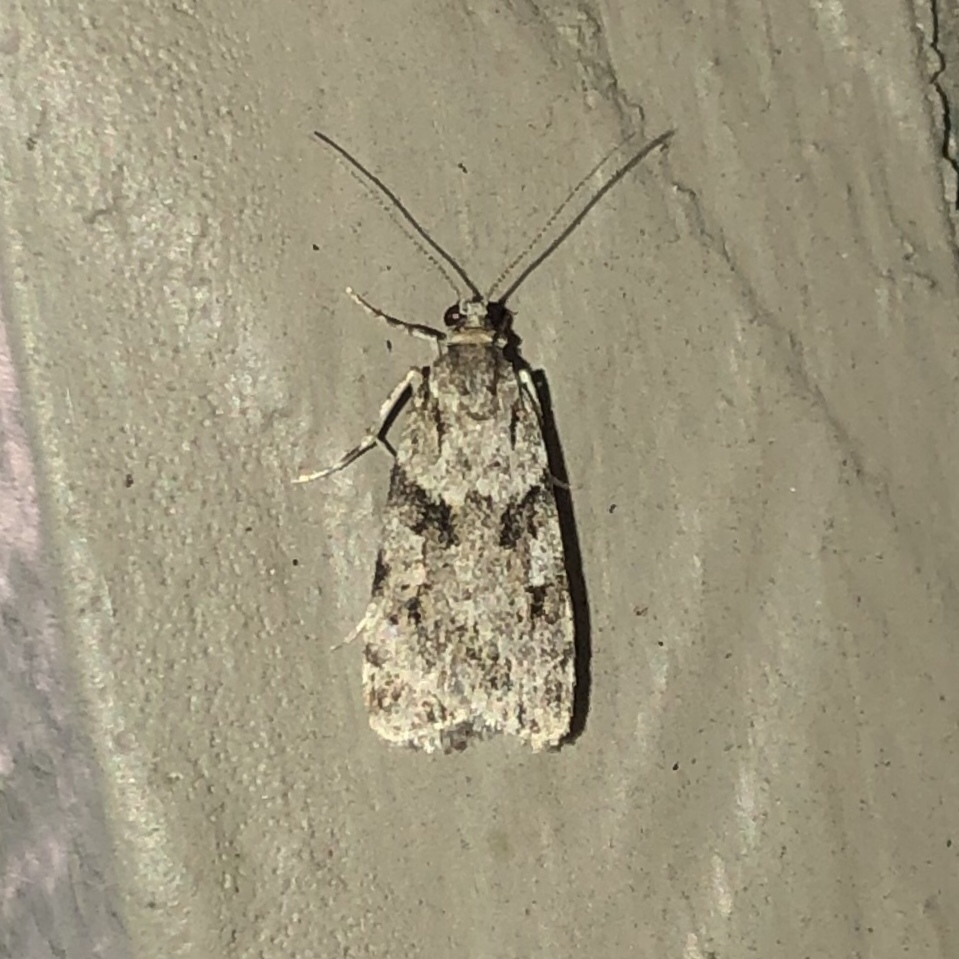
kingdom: Animalia
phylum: Arthropoda
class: Insecta
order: Lepidoptera
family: Crambidae
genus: Scoparia
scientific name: Scoparia biplagialis
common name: Double-striped scoparia moth
